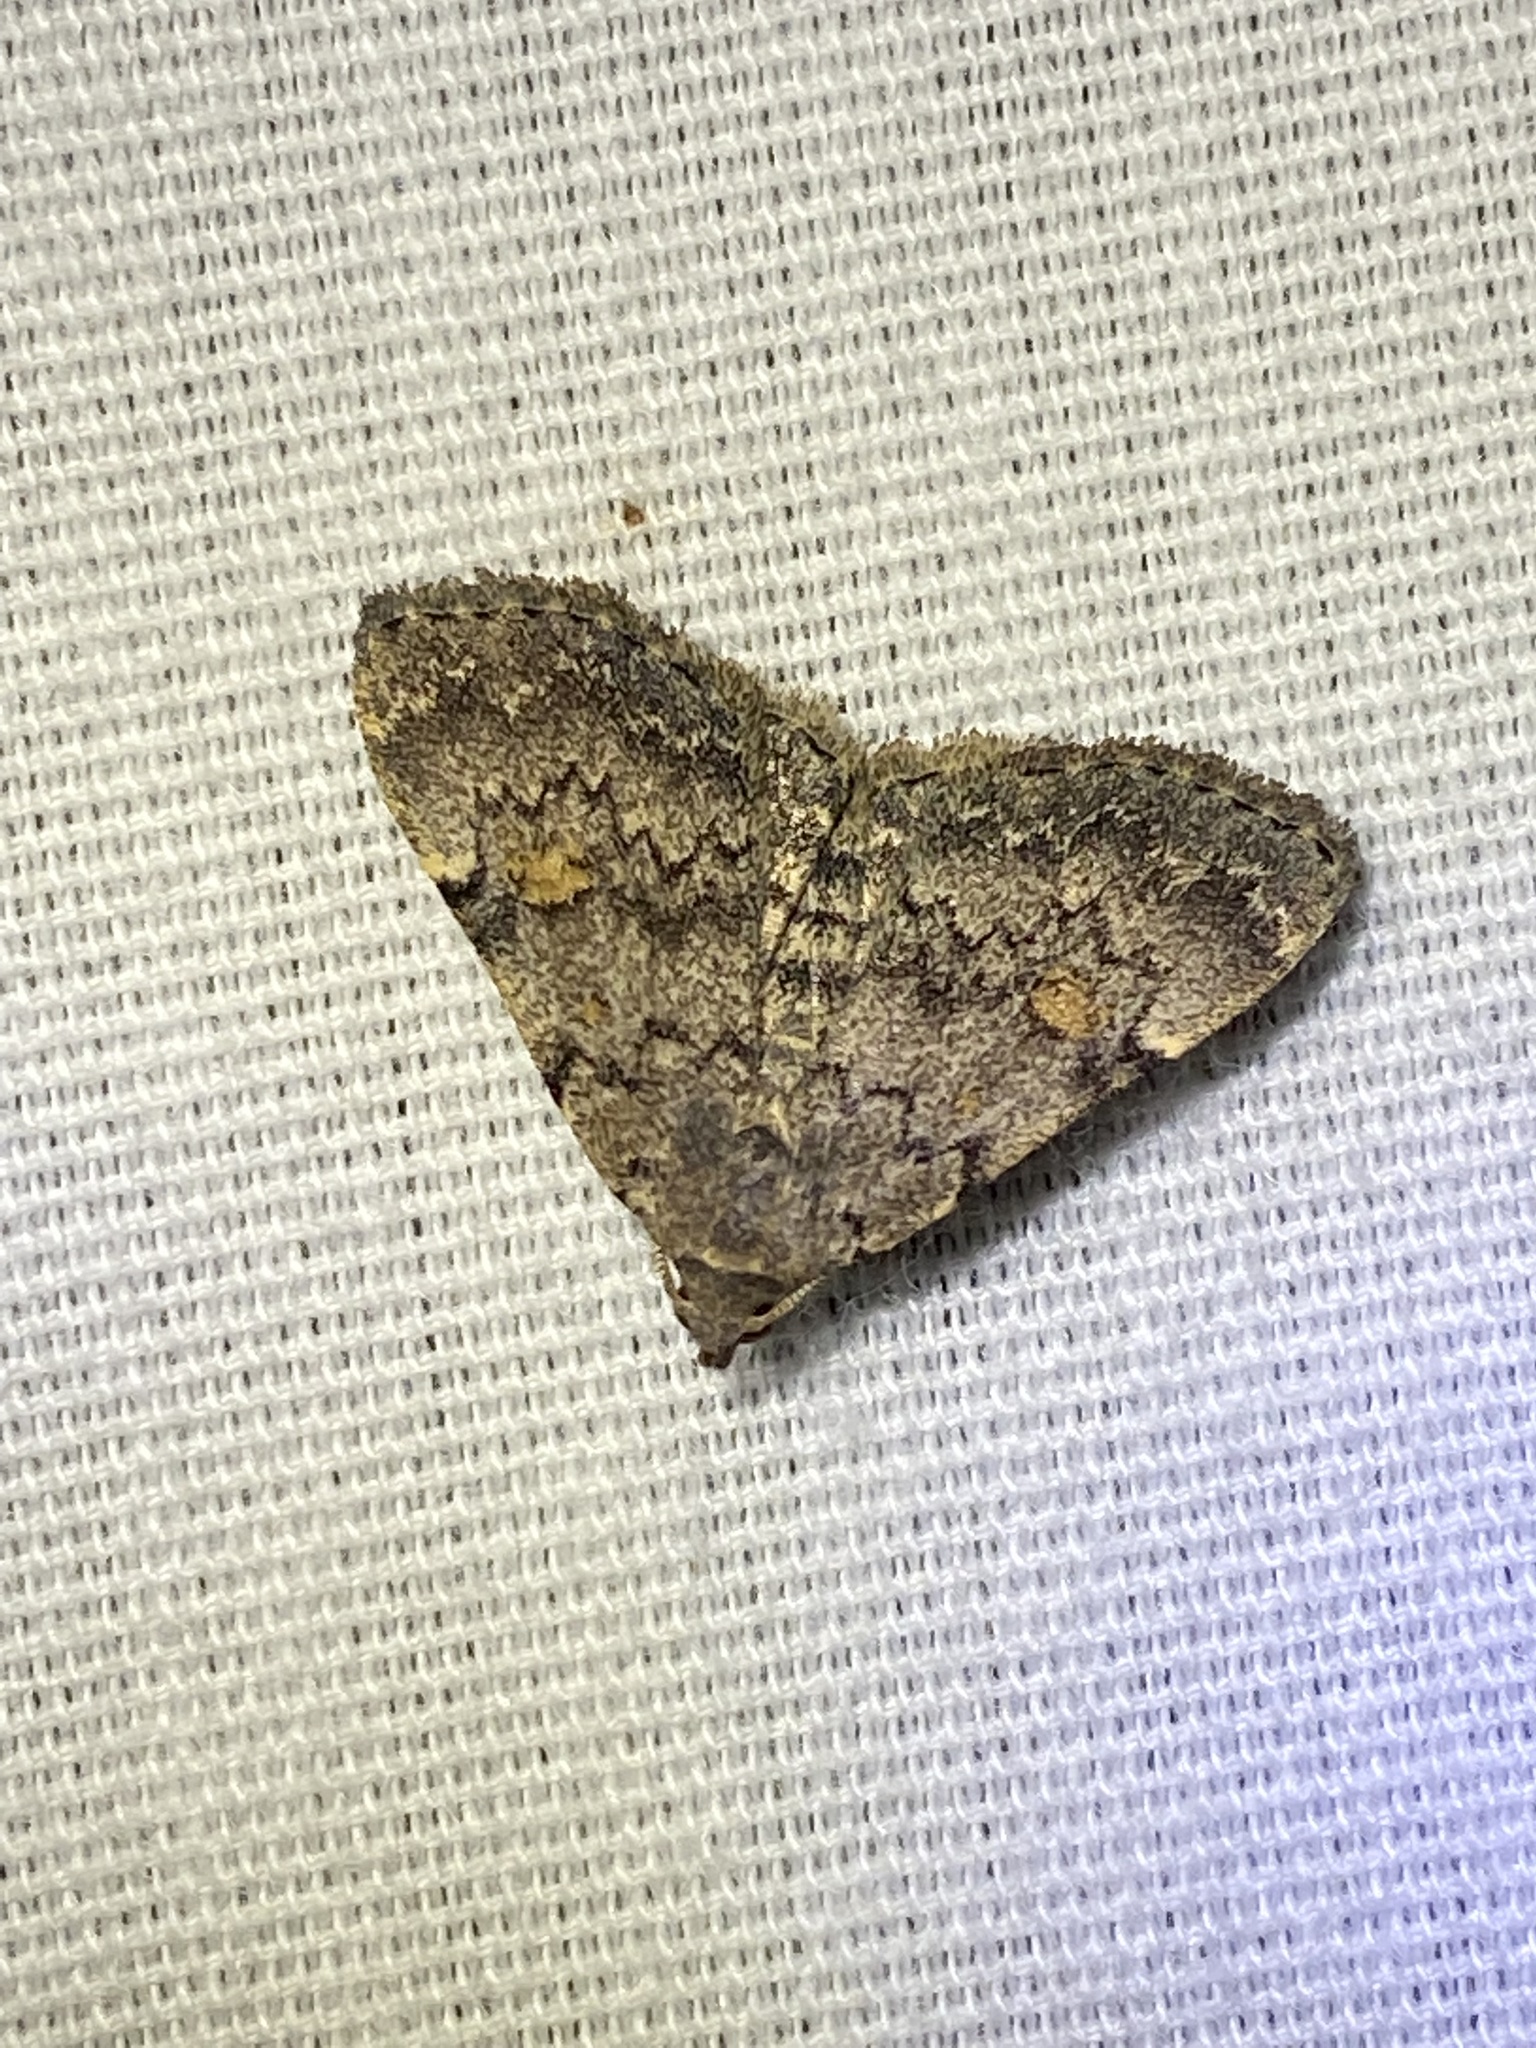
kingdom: Animalia
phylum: Arthropoda
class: Insecta
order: Lepidoptera
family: Erebidae
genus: Idia
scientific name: Idia aemula
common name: Common idia moth
